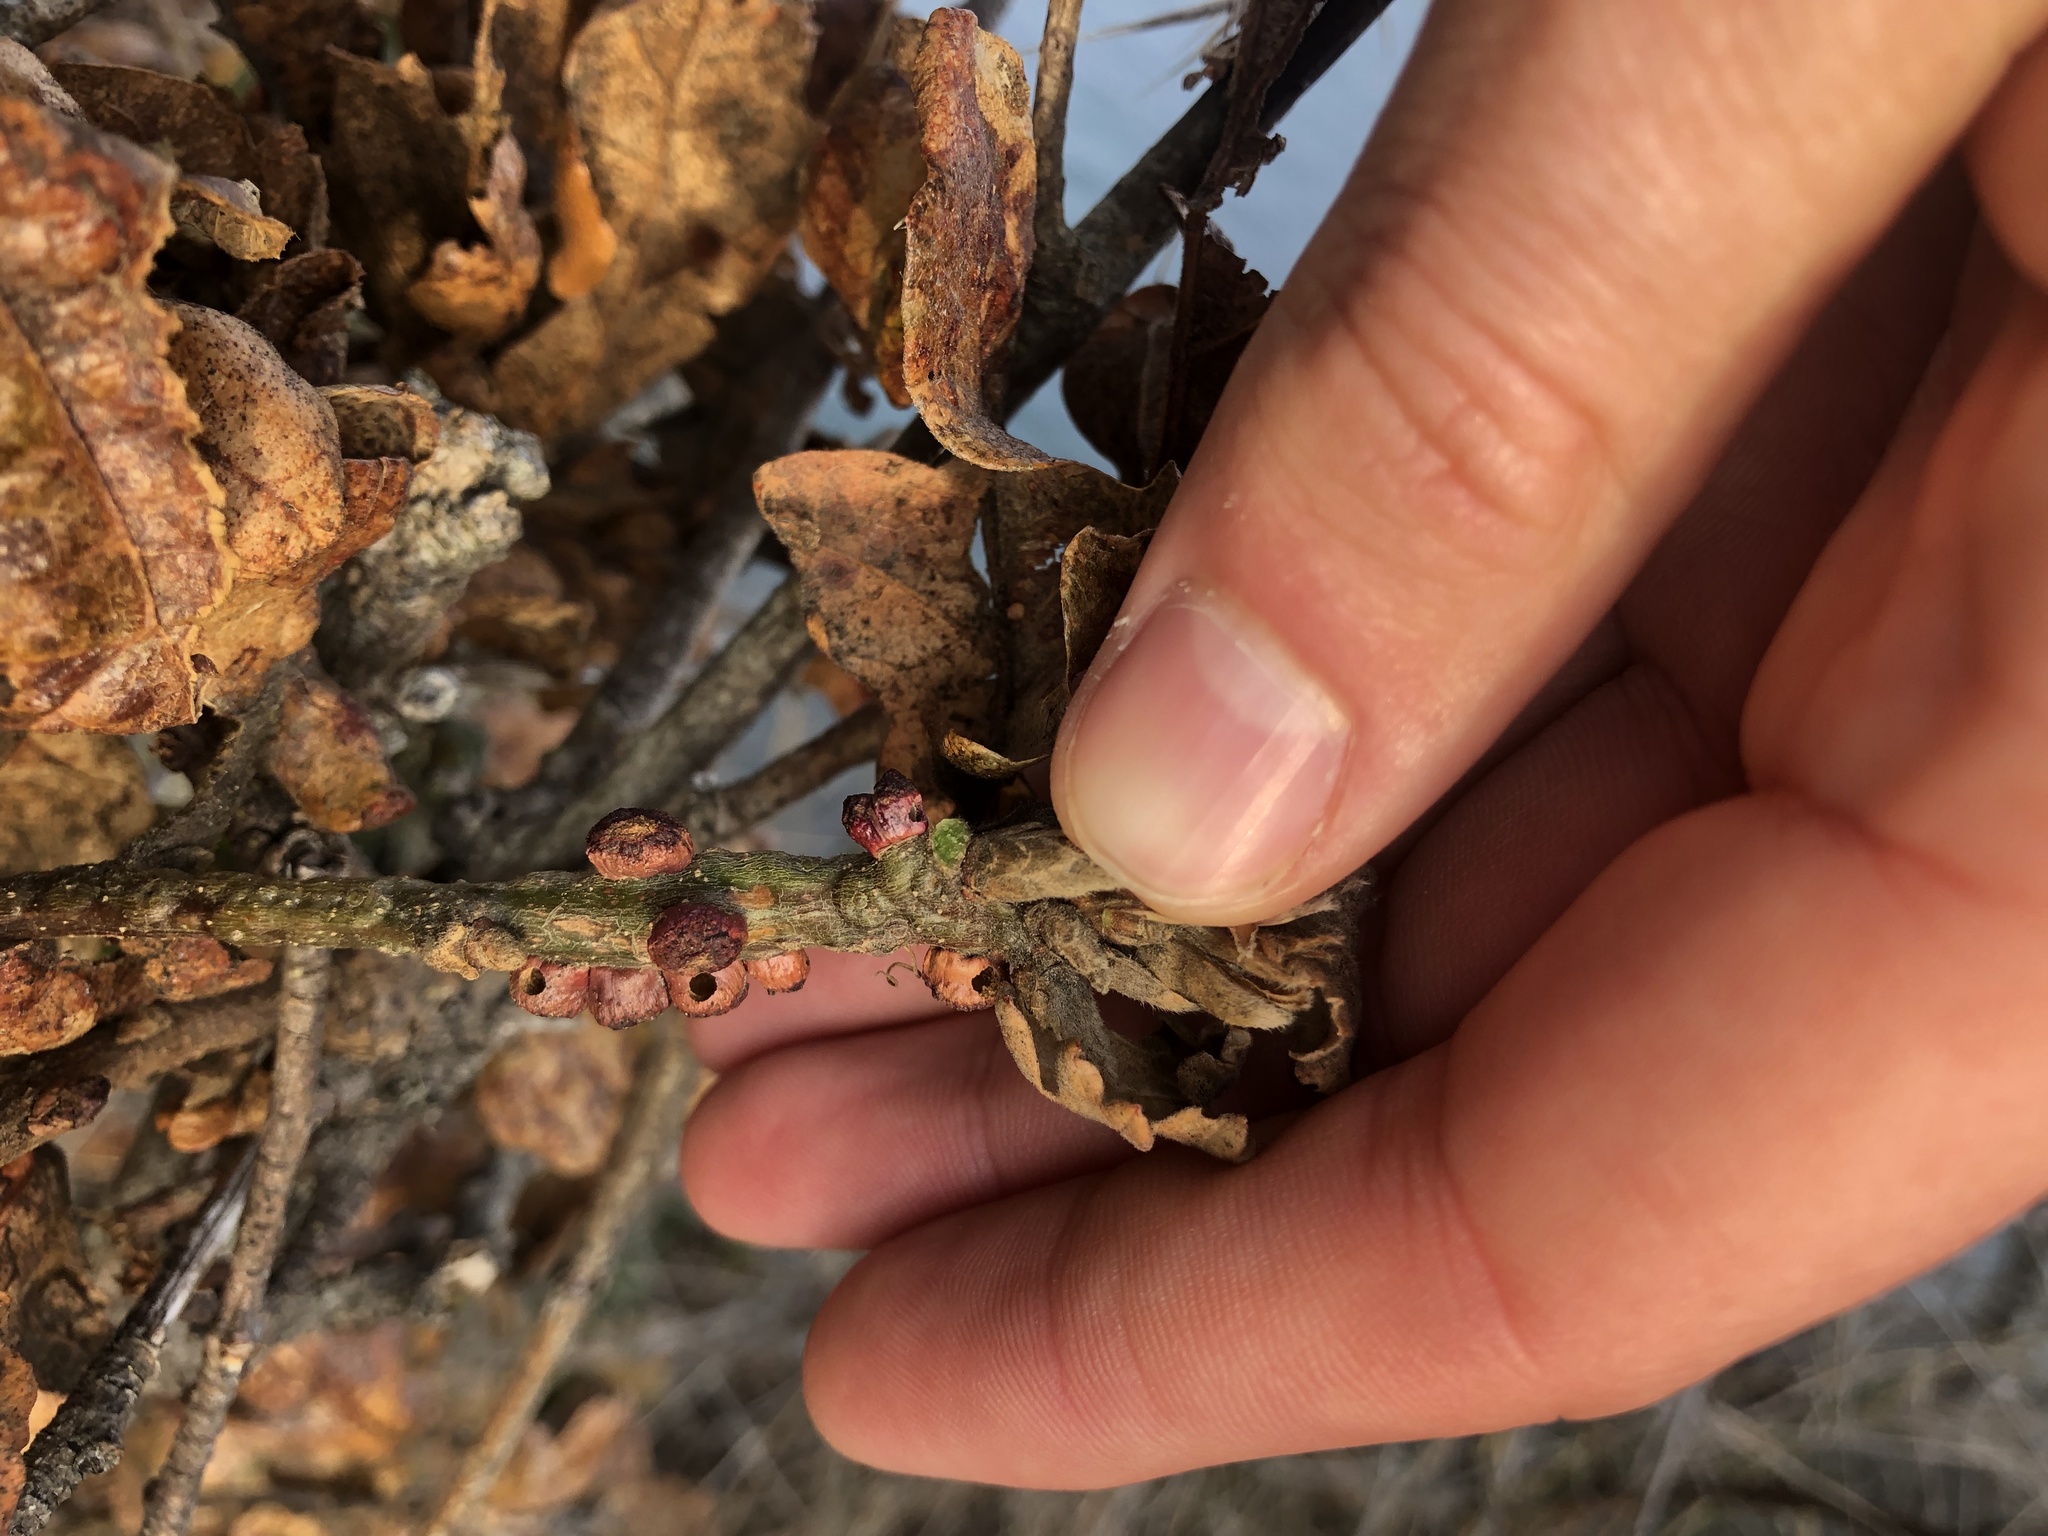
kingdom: Animalia
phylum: Arthropoda
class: Insecta
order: Hymenoptera
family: Cynipidae
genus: Disholcaspis
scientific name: Disholcaspis
